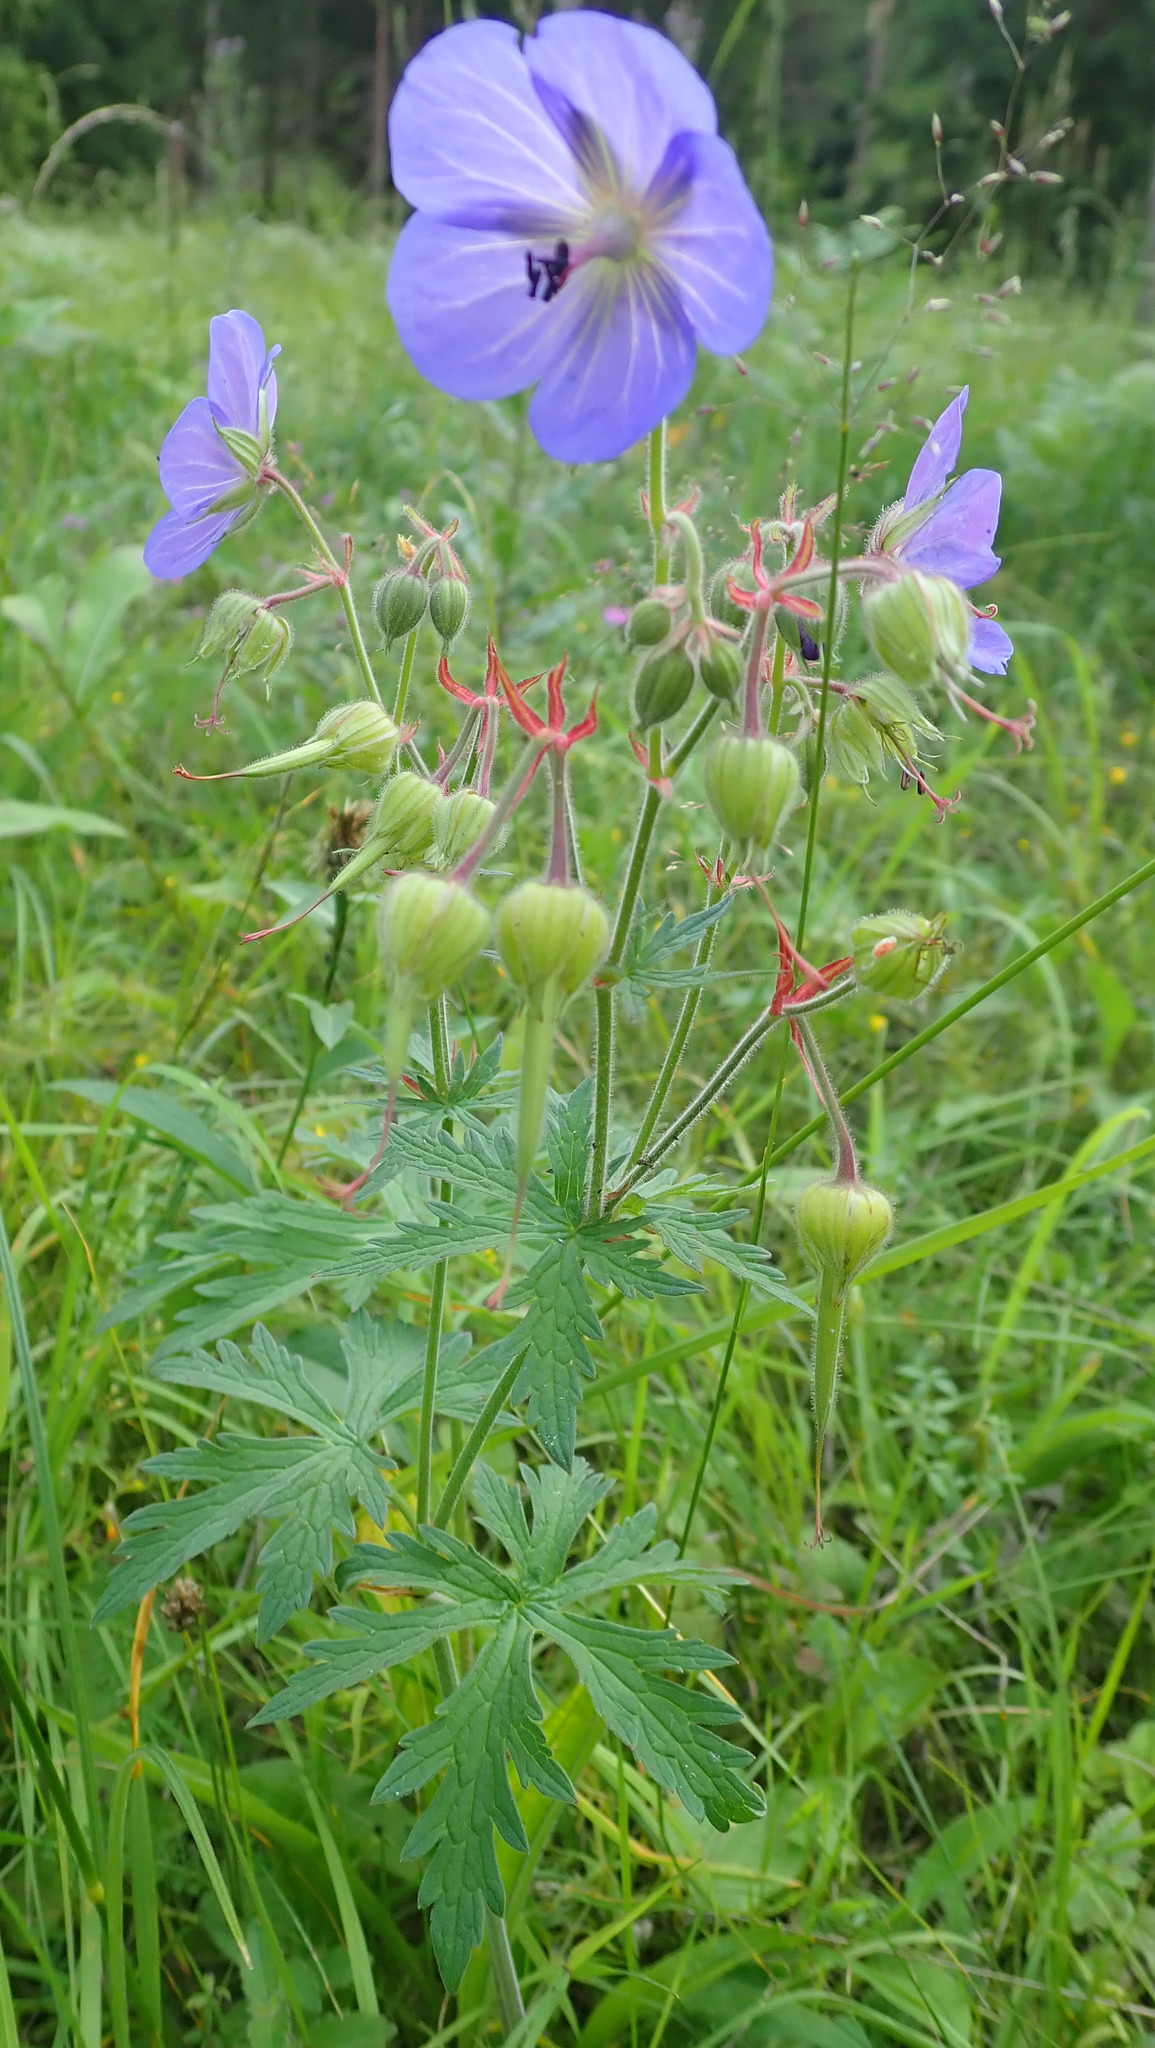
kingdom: Plantae
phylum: Tracheophyta
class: Magnoliopsida
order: Geraniales
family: Geraniaceae
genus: Geranium
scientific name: Geranium pratense
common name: Meadow crane's-bill
